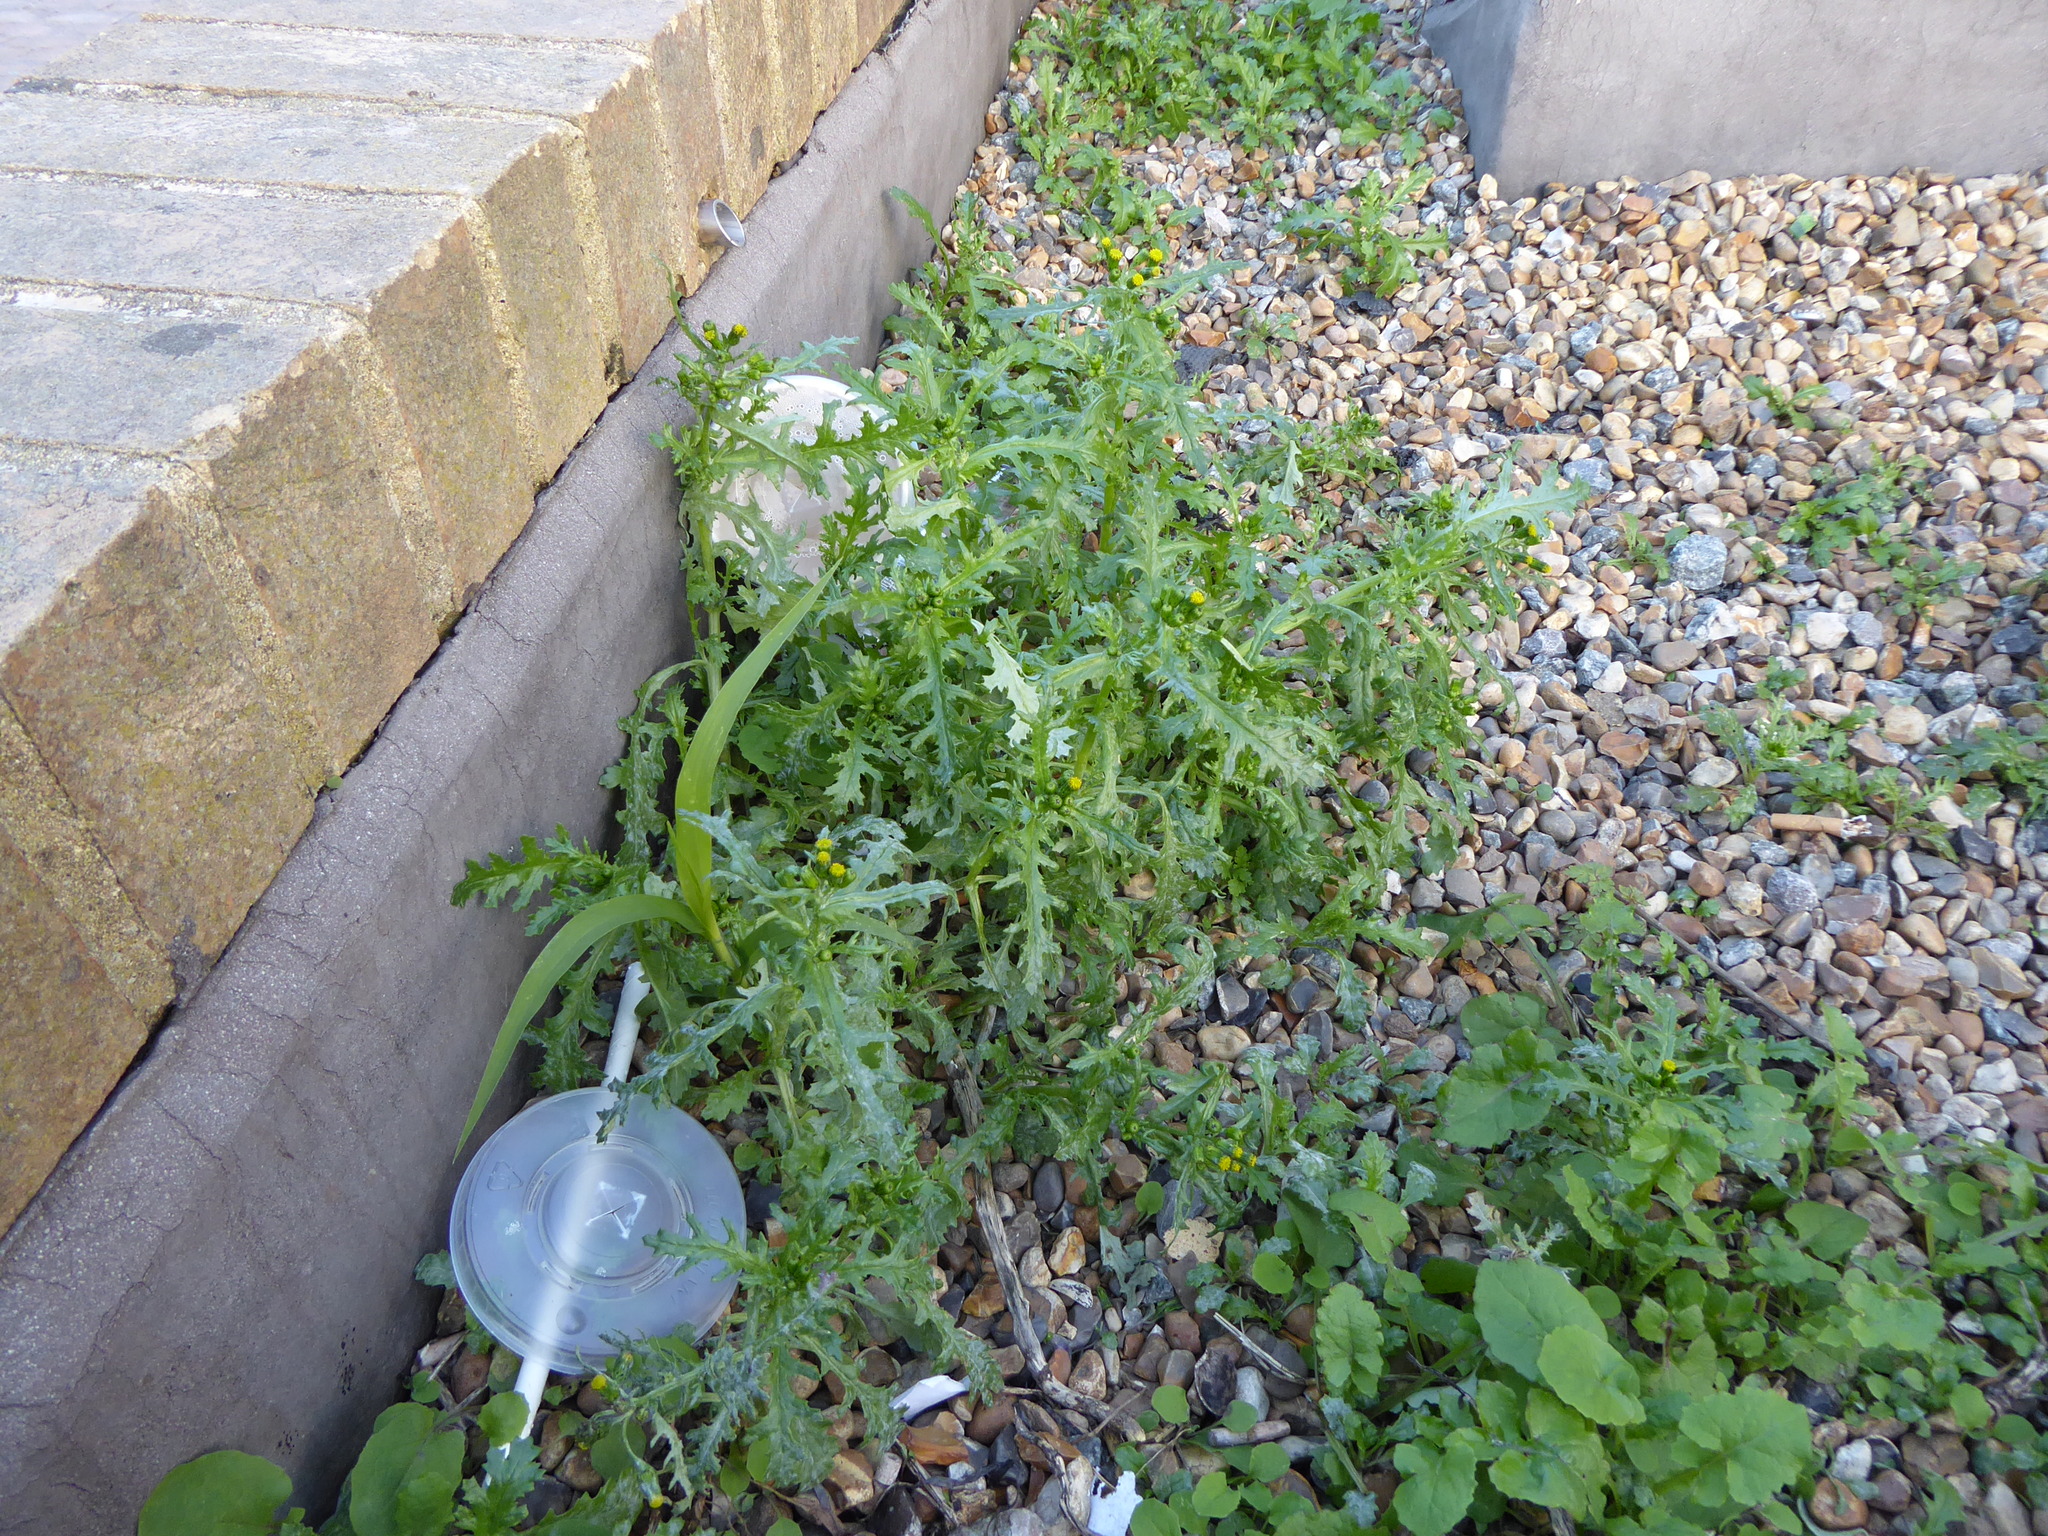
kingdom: Plantae
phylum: Tracheophyta
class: Magnoliopsida
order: Asterales
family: Asteraceae
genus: Senecio
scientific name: Senecio vulgaris
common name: Old-man-in-the-spring
